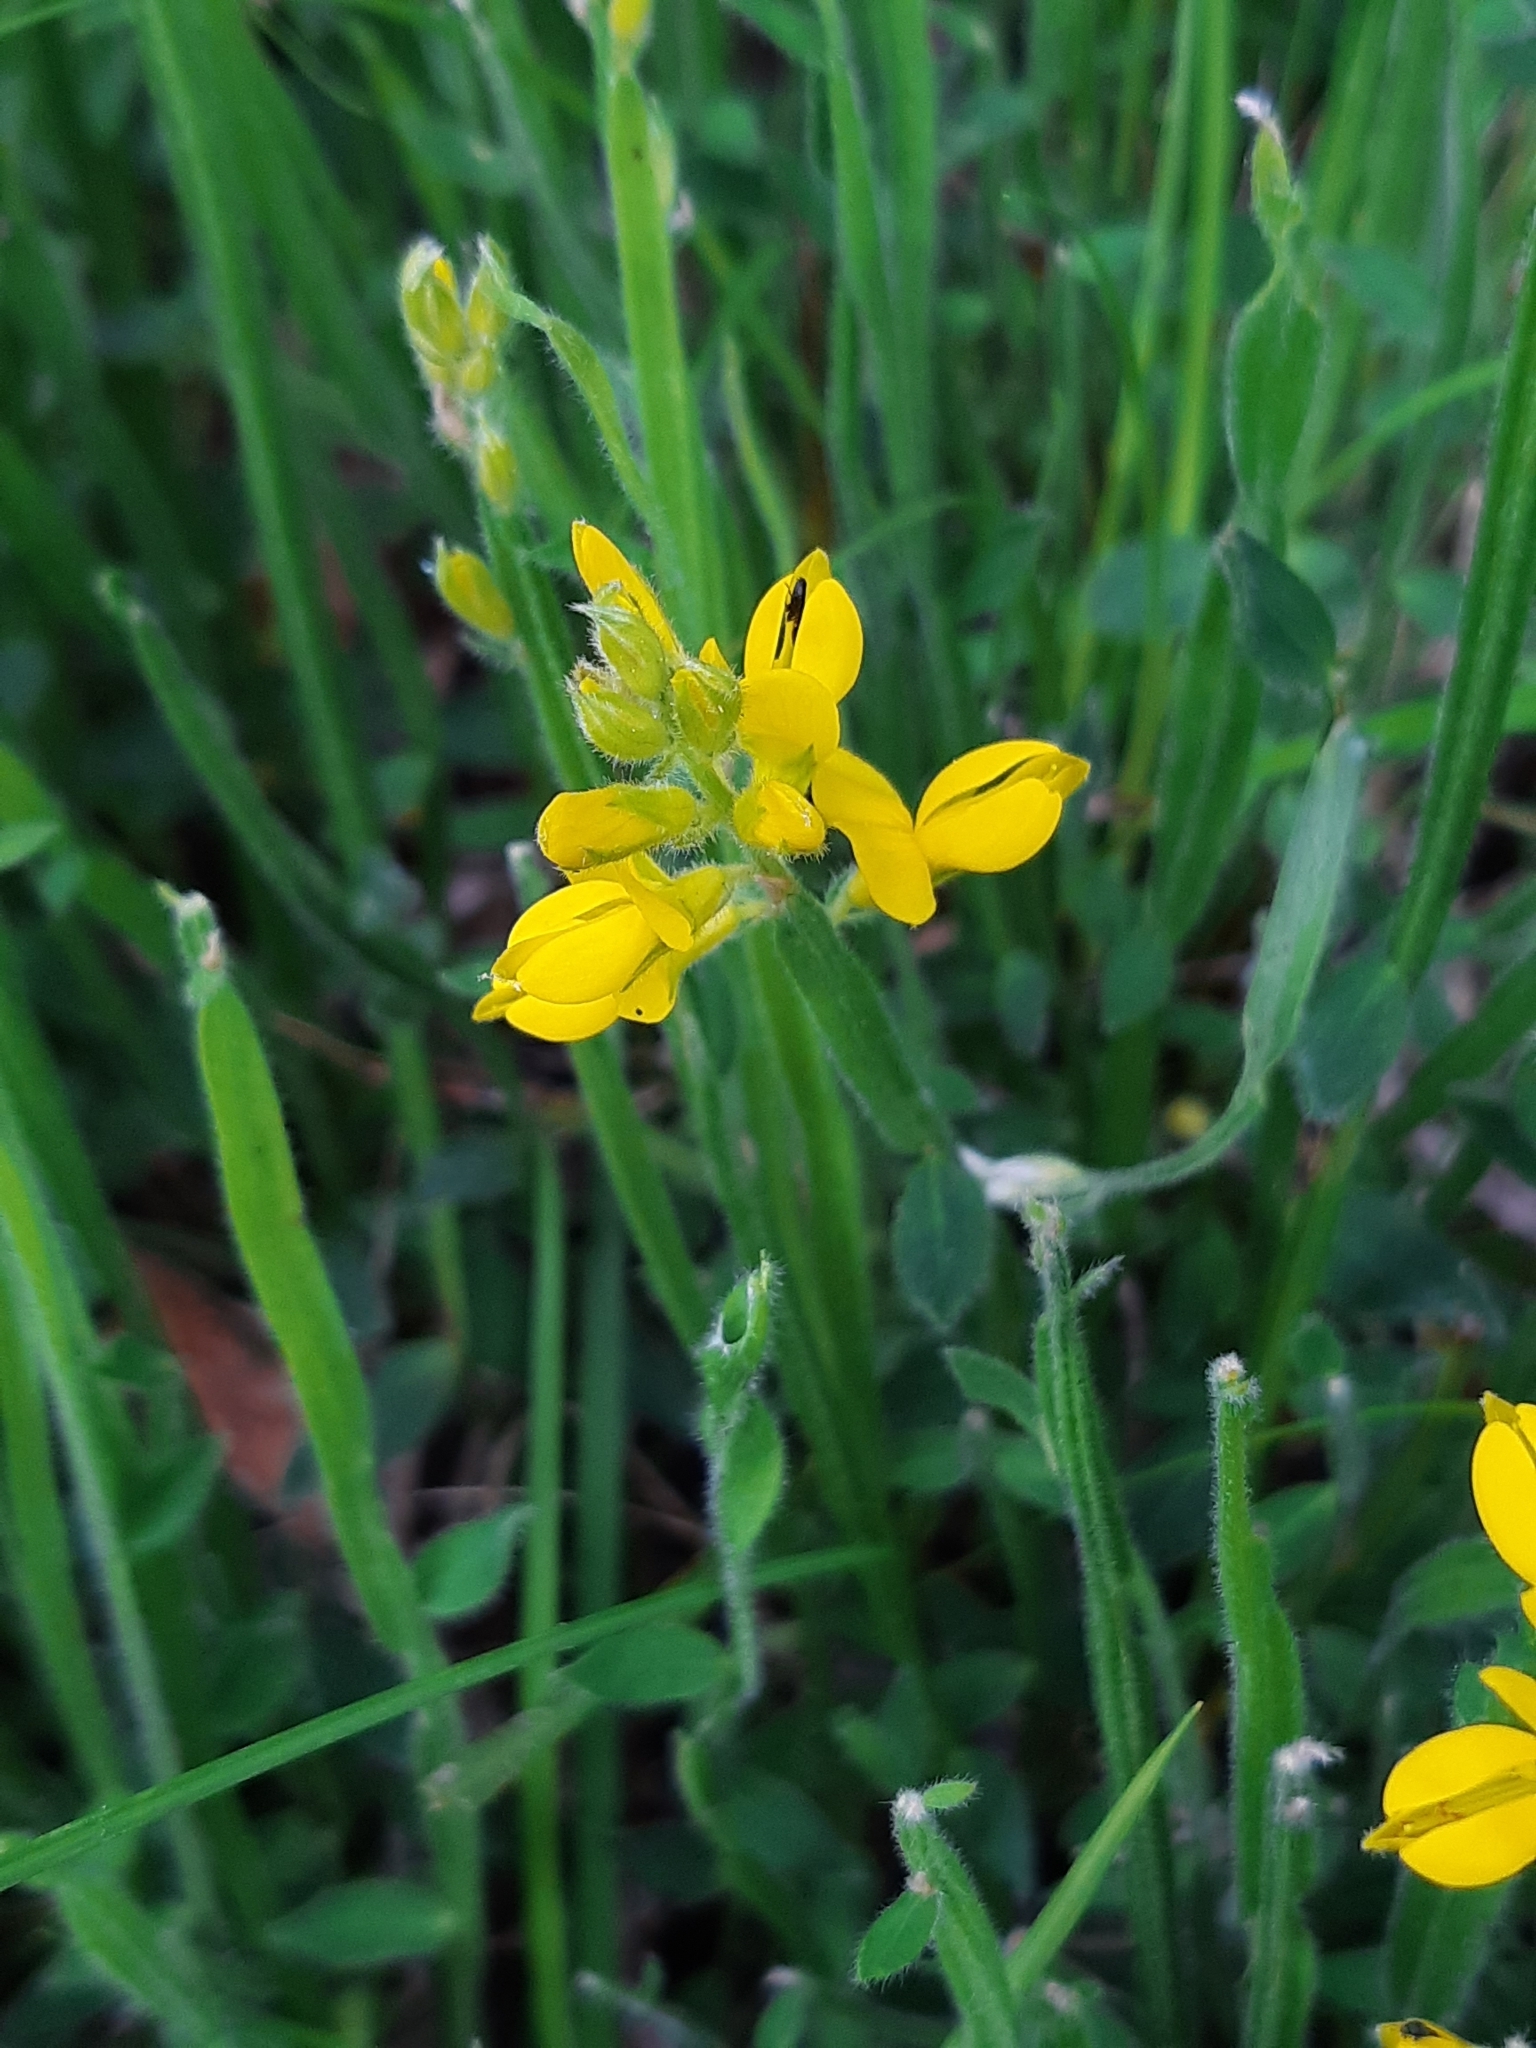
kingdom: Plantae
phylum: Tracheophyta
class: Magnoliopsida
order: Fabales
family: Fabaceae
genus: Genista
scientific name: Genista sagittalis
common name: Winged greenweed
